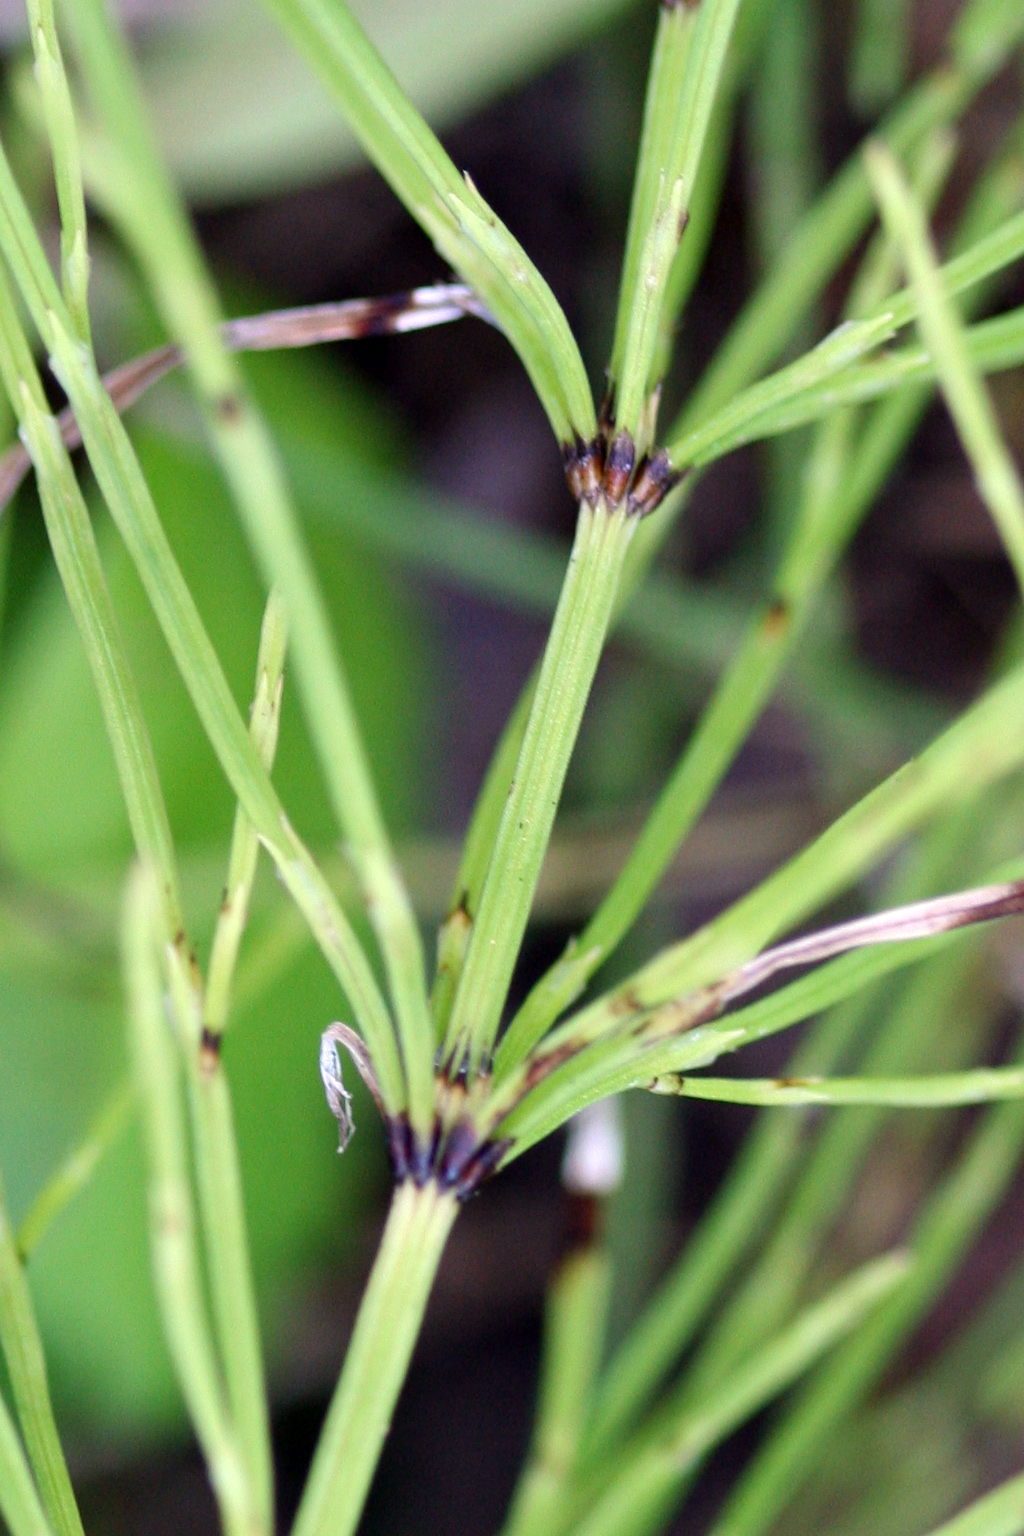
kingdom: Plantae
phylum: Tracheophyta
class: Polypodiopsida
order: Equisetales
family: Equisetaceae
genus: Equisetum
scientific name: Equisetum arvense
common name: Field horsetail
